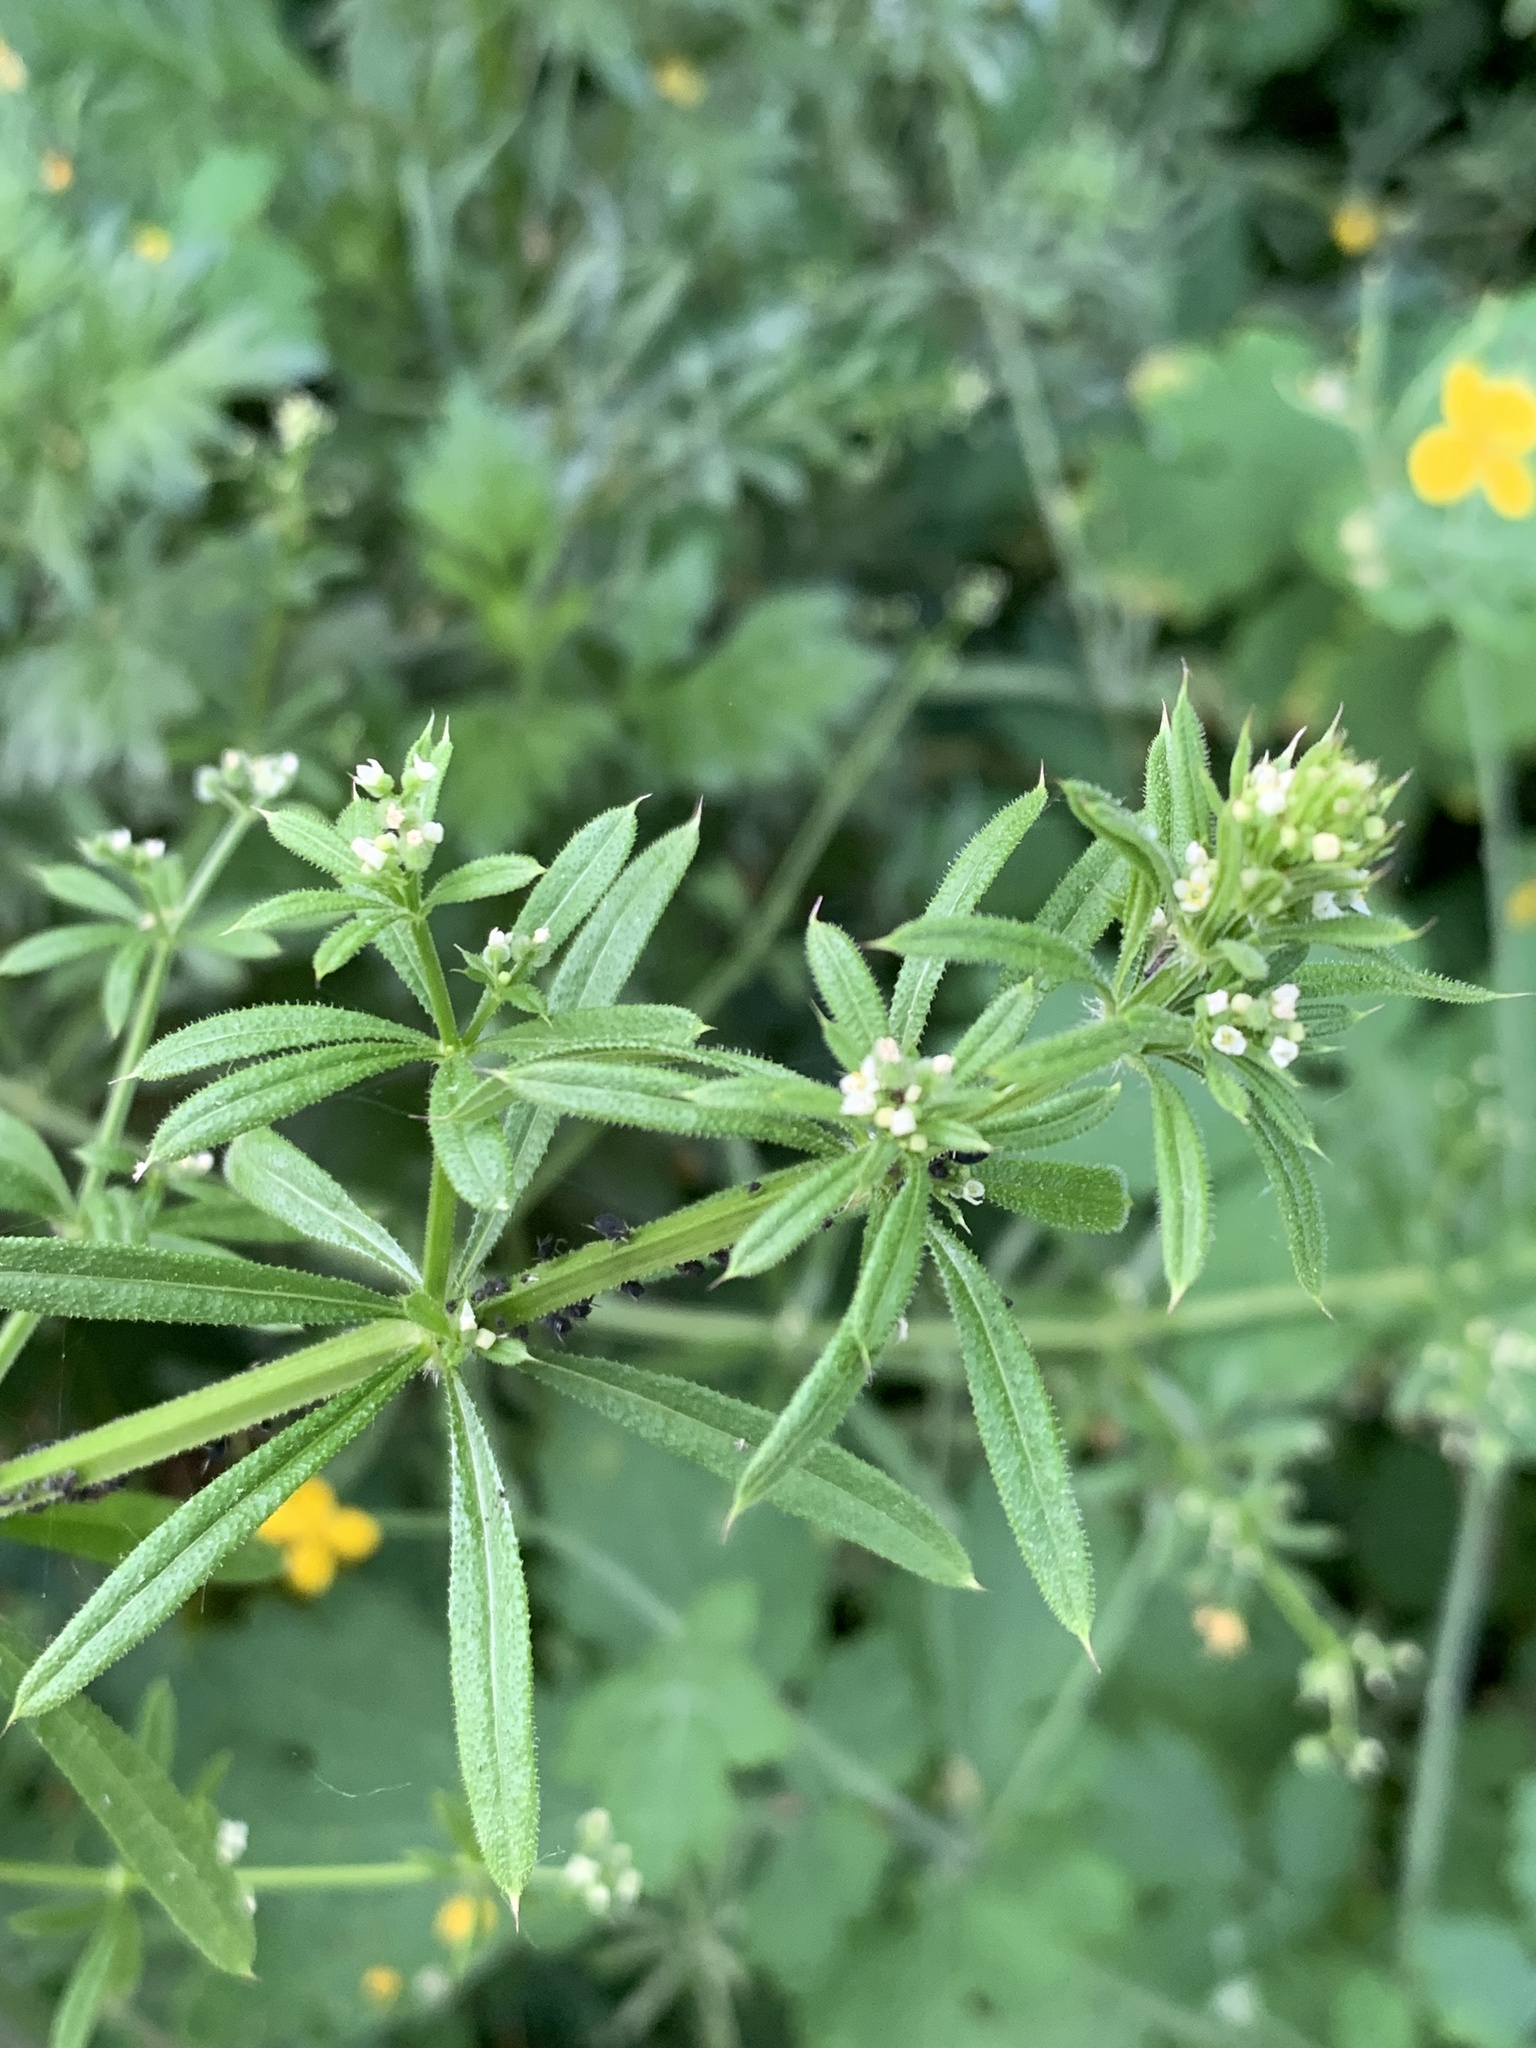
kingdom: Plantae
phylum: Tracheophyta
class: Magnoliopsida
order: Gentianales
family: Rubiaceae
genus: Galium
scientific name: Galium aparine
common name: Cleavers
